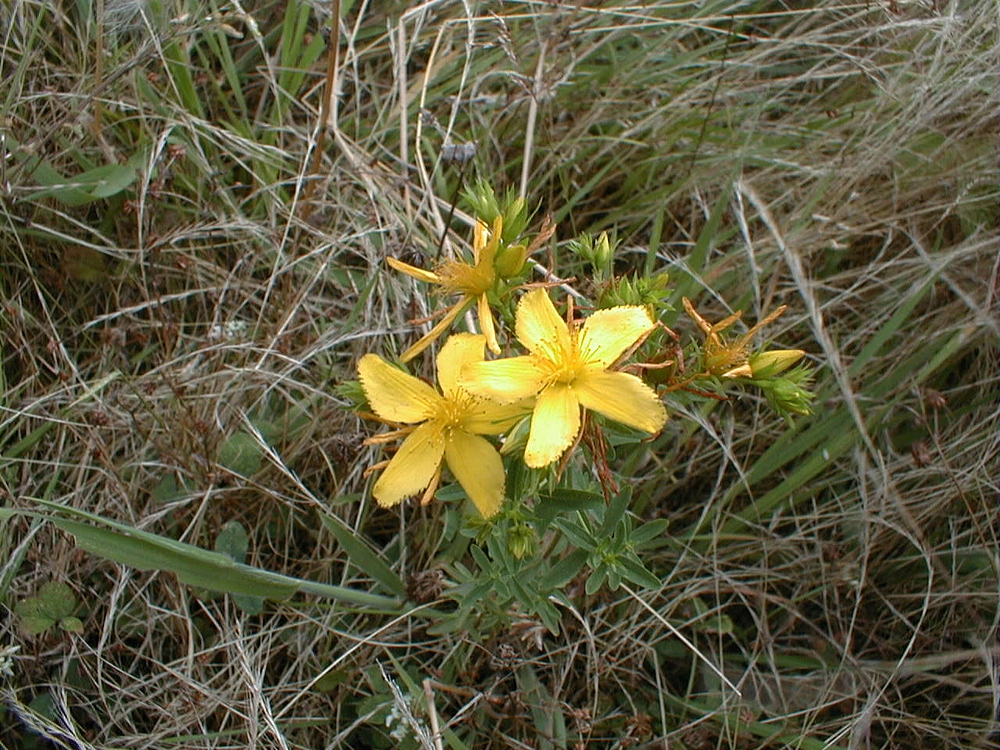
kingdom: Plantae
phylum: Tracheophyta
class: Magnoliopsida
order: Malpighiales
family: Hypericaceae
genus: Hypericum
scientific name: Hypericum perforatum
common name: Common st. johnswort
